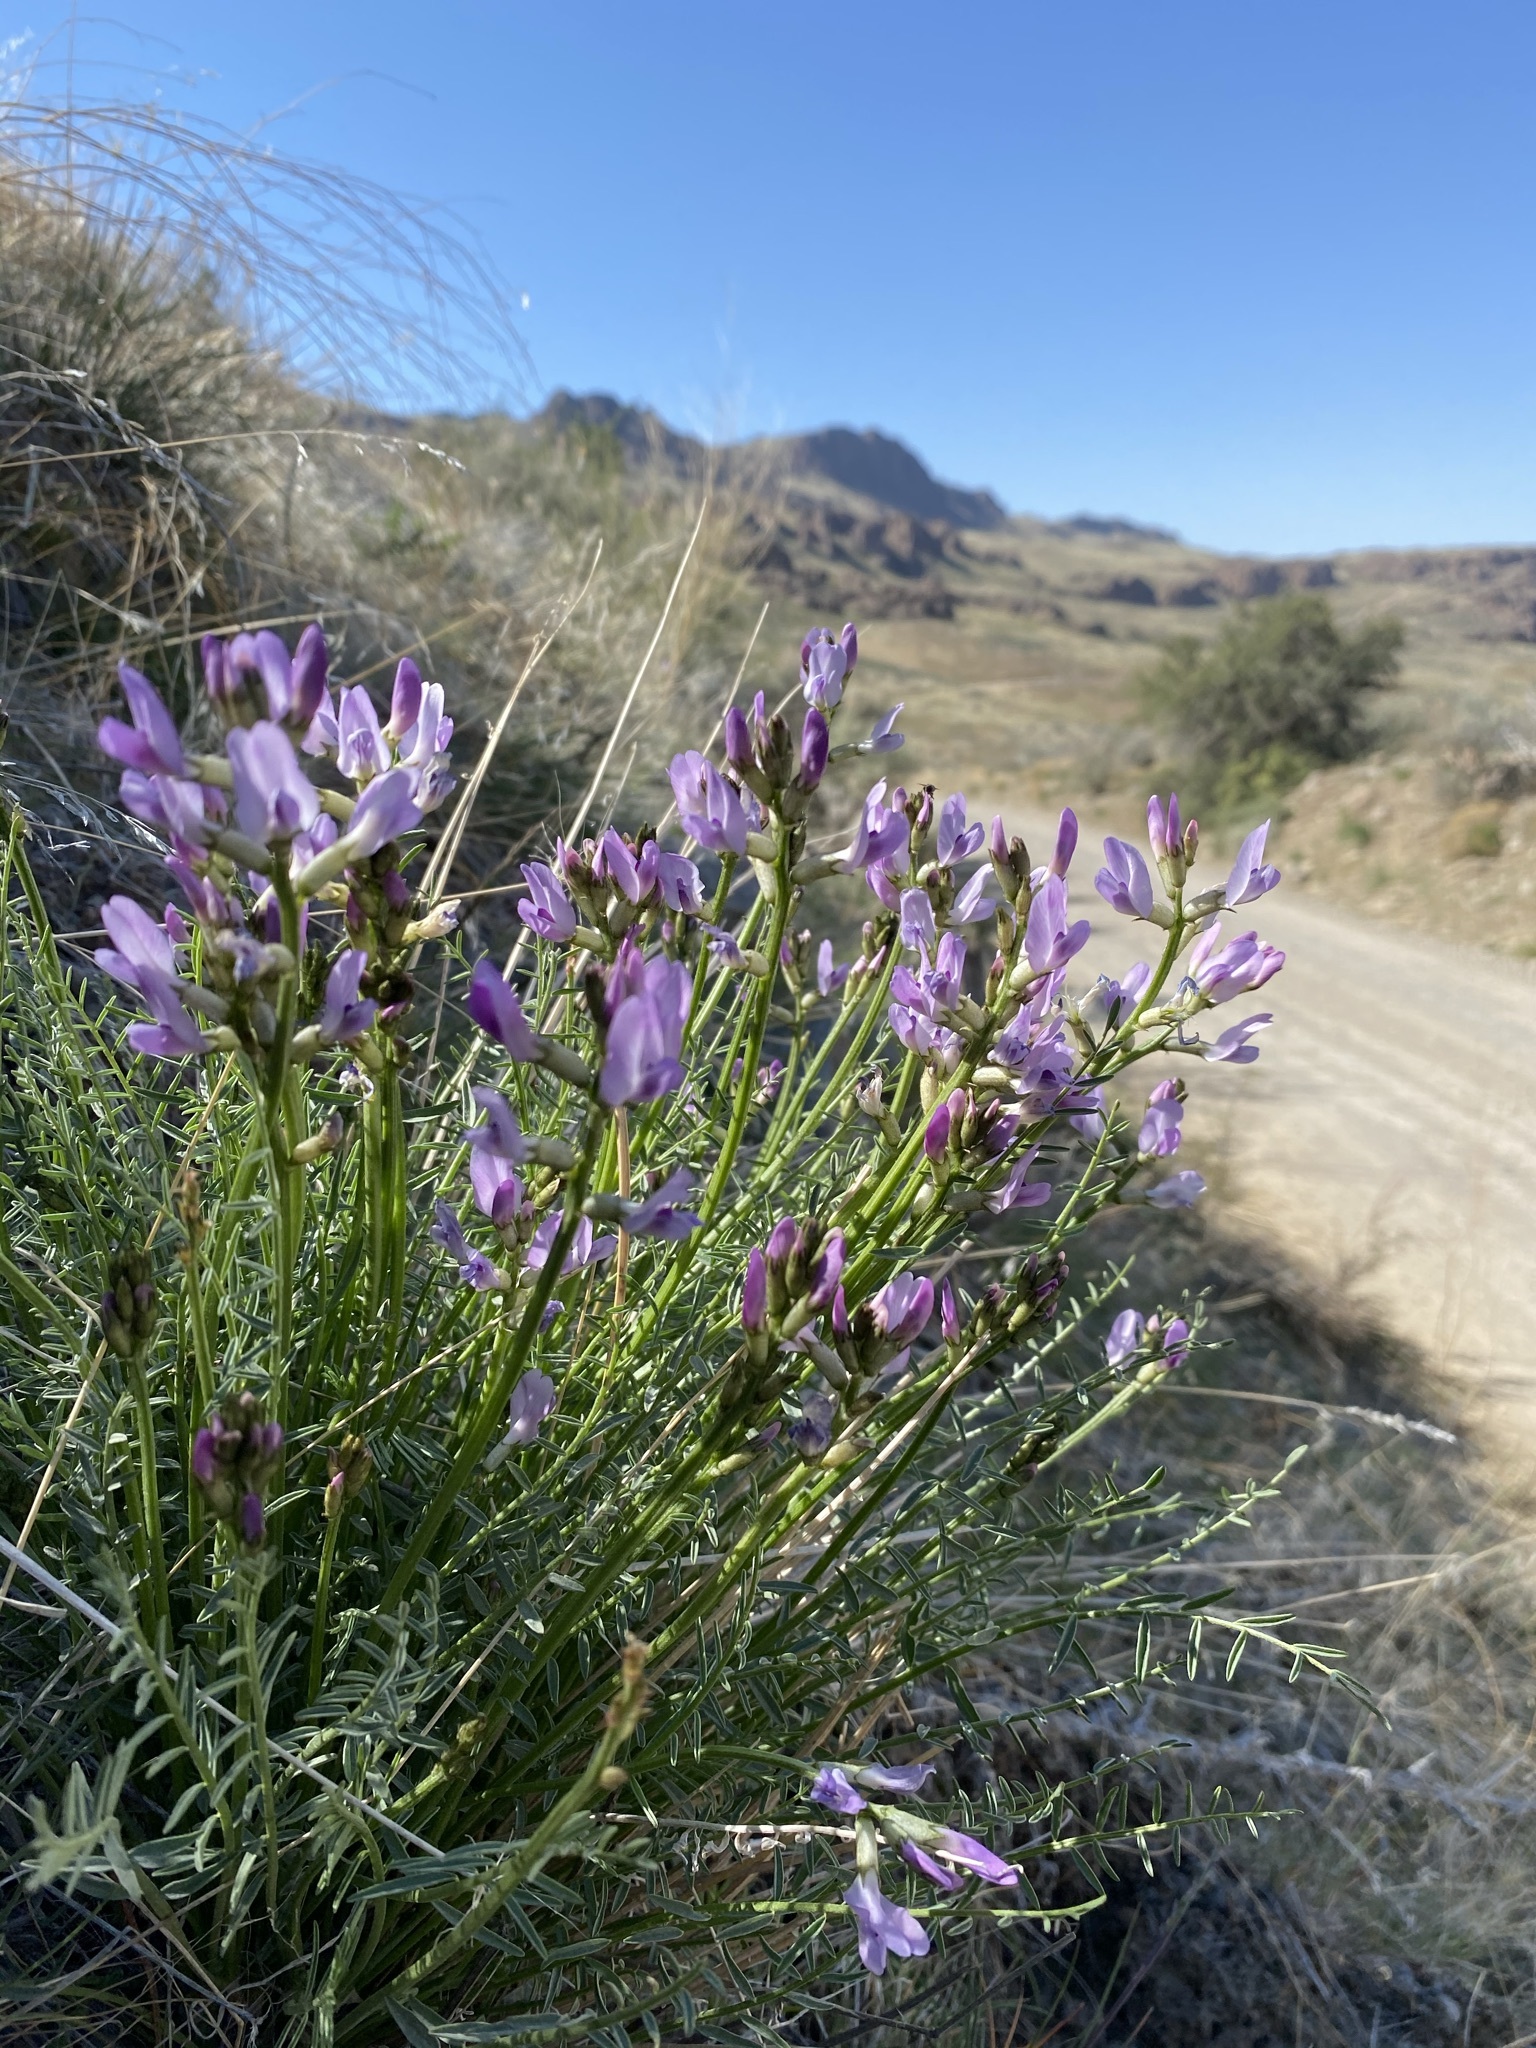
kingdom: Plantae
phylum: Tracheophyta
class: Magnoliopsida
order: Fabales
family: Fabaceae
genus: Astragalus
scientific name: Astragalus conjunctus
